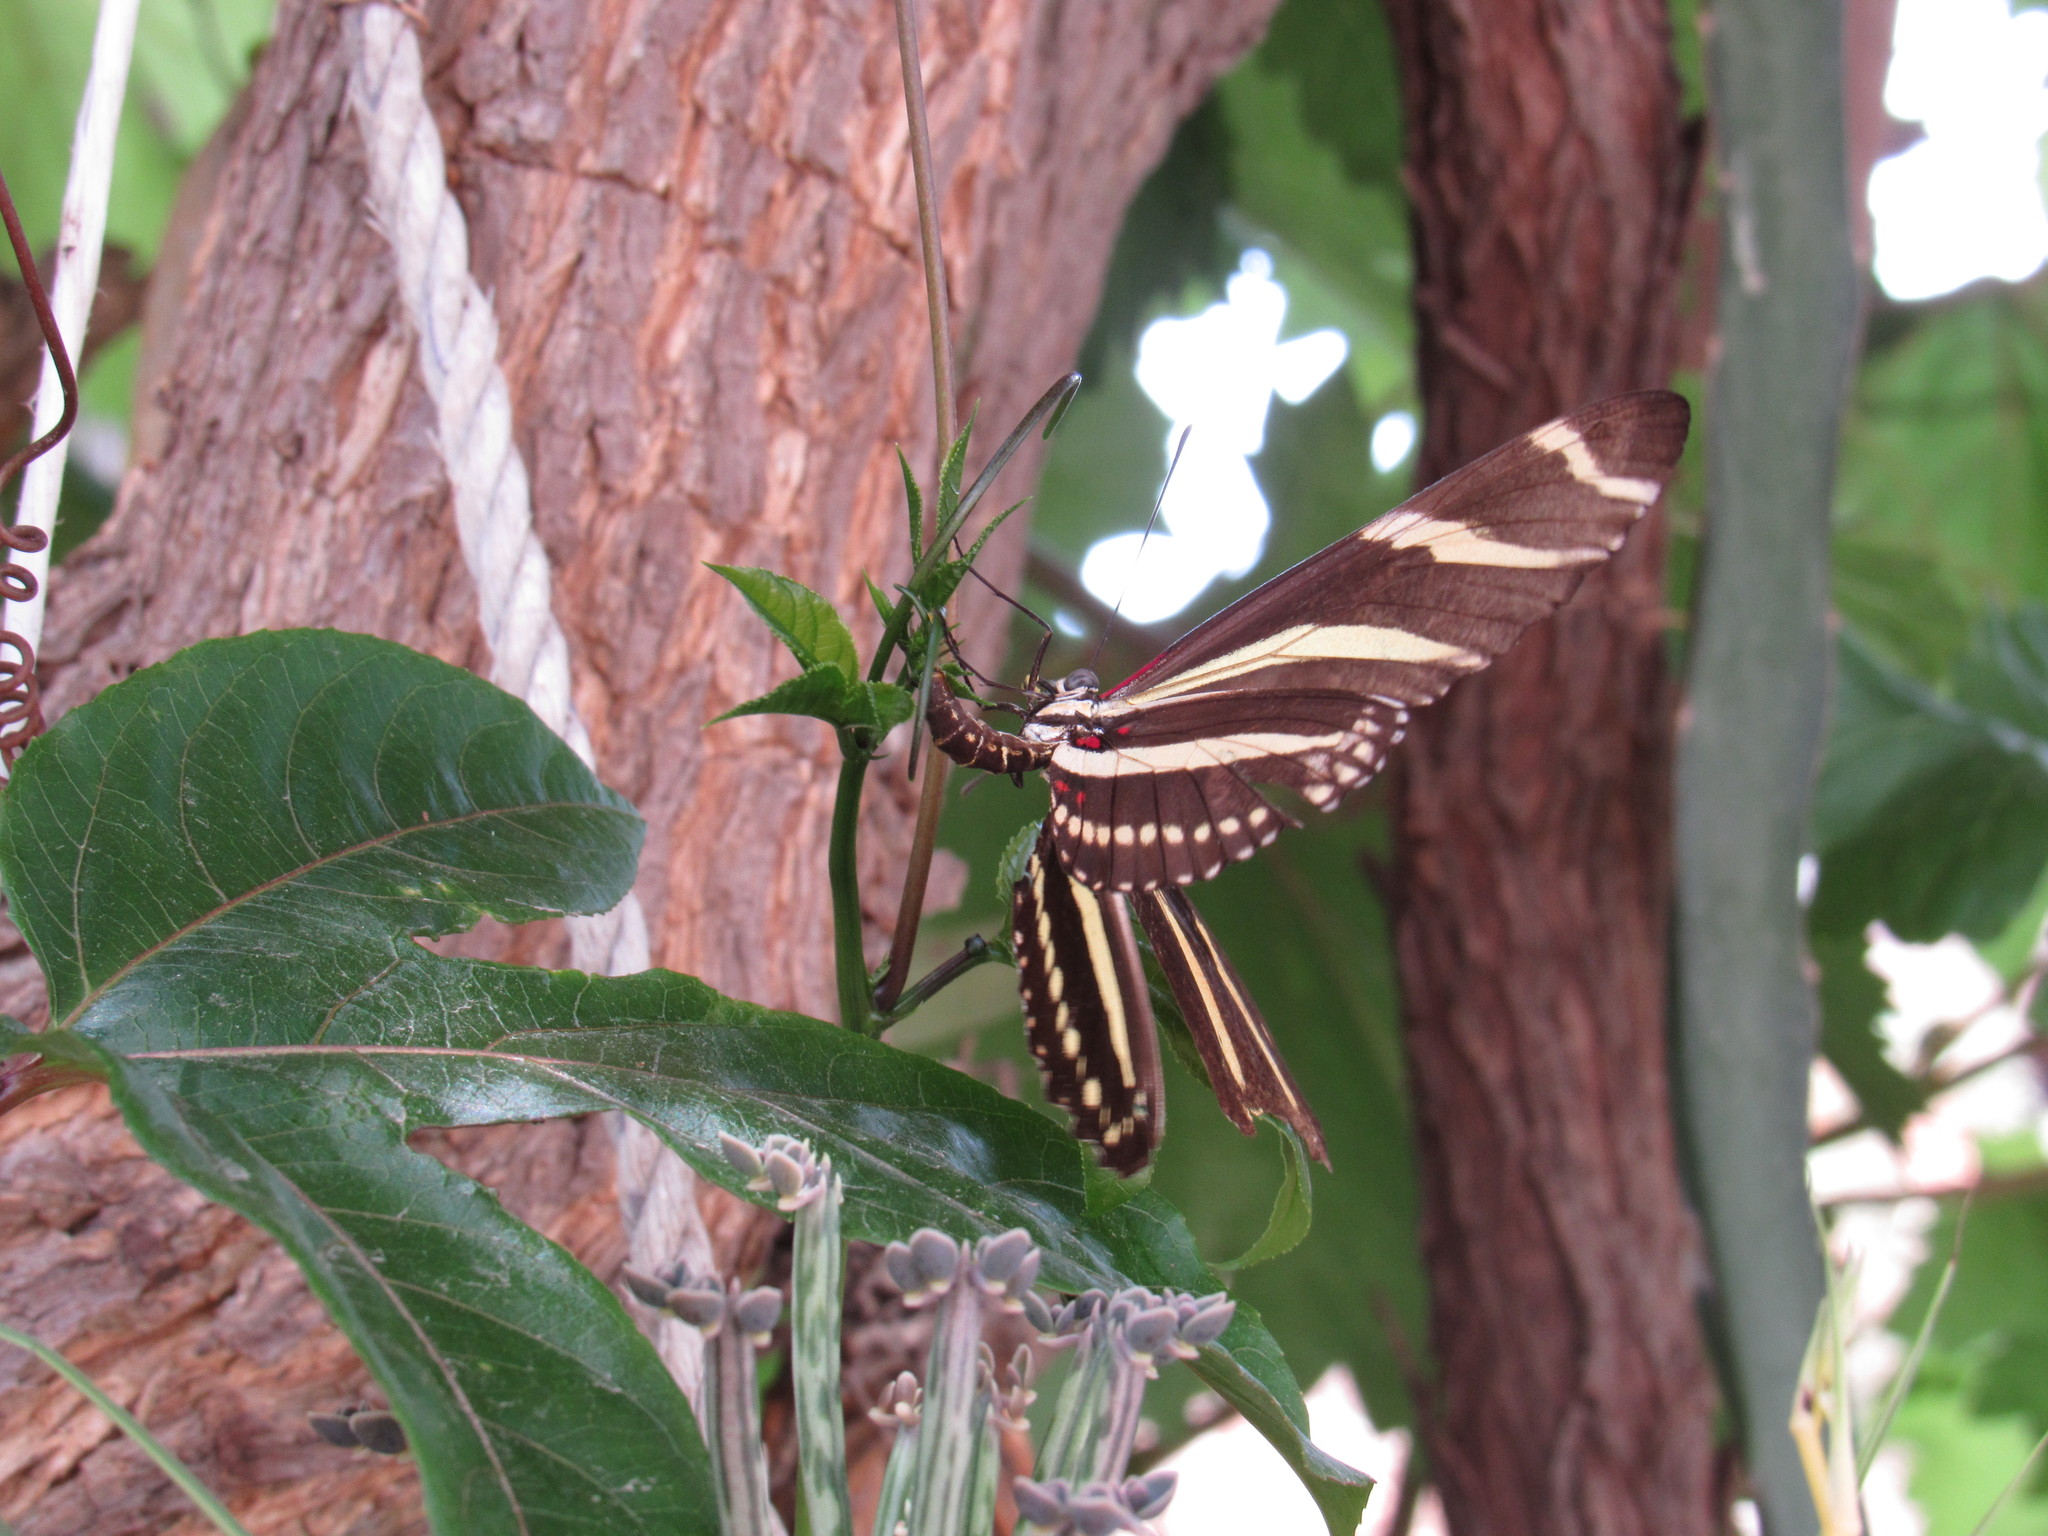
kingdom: Animalia
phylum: Arthropoda
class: Insecta
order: Lepidoptera
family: Nymphalidae
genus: Heliconius
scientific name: Heliconius charithonia
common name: Zebra long wing
